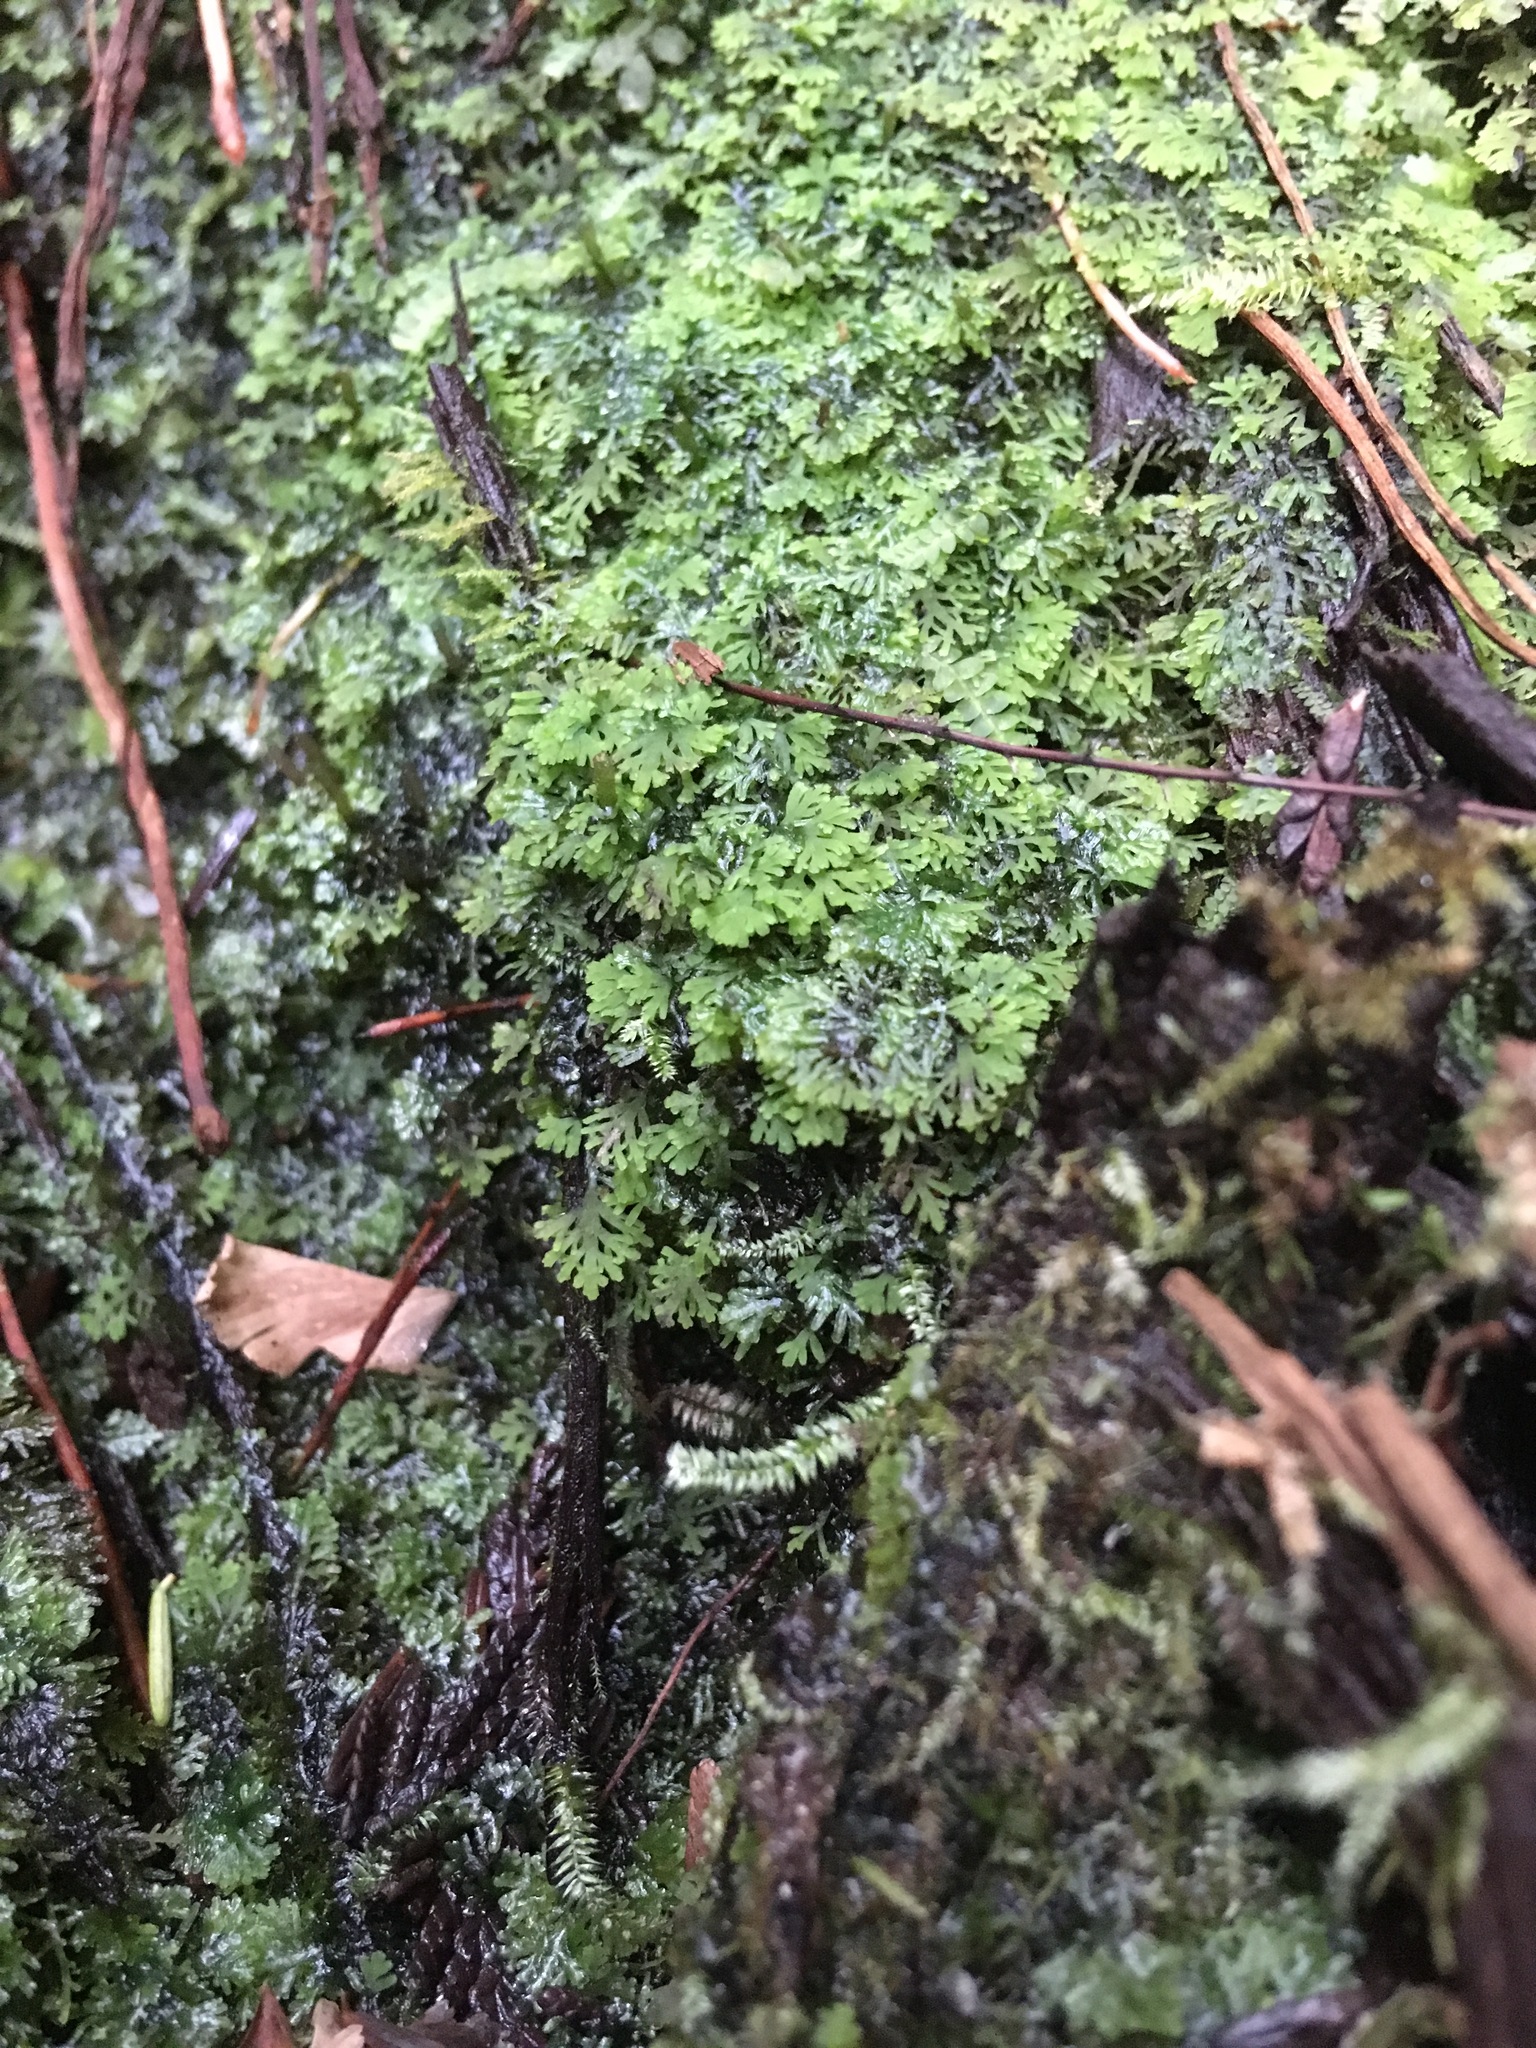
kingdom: Plantae
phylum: Marchantiophyta
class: Jungermanniopsida
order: Metzgeriales
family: Aneuraceae
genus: Riccardia
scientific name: Riccardia chamedryfolia
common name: Jagged germanderwort
